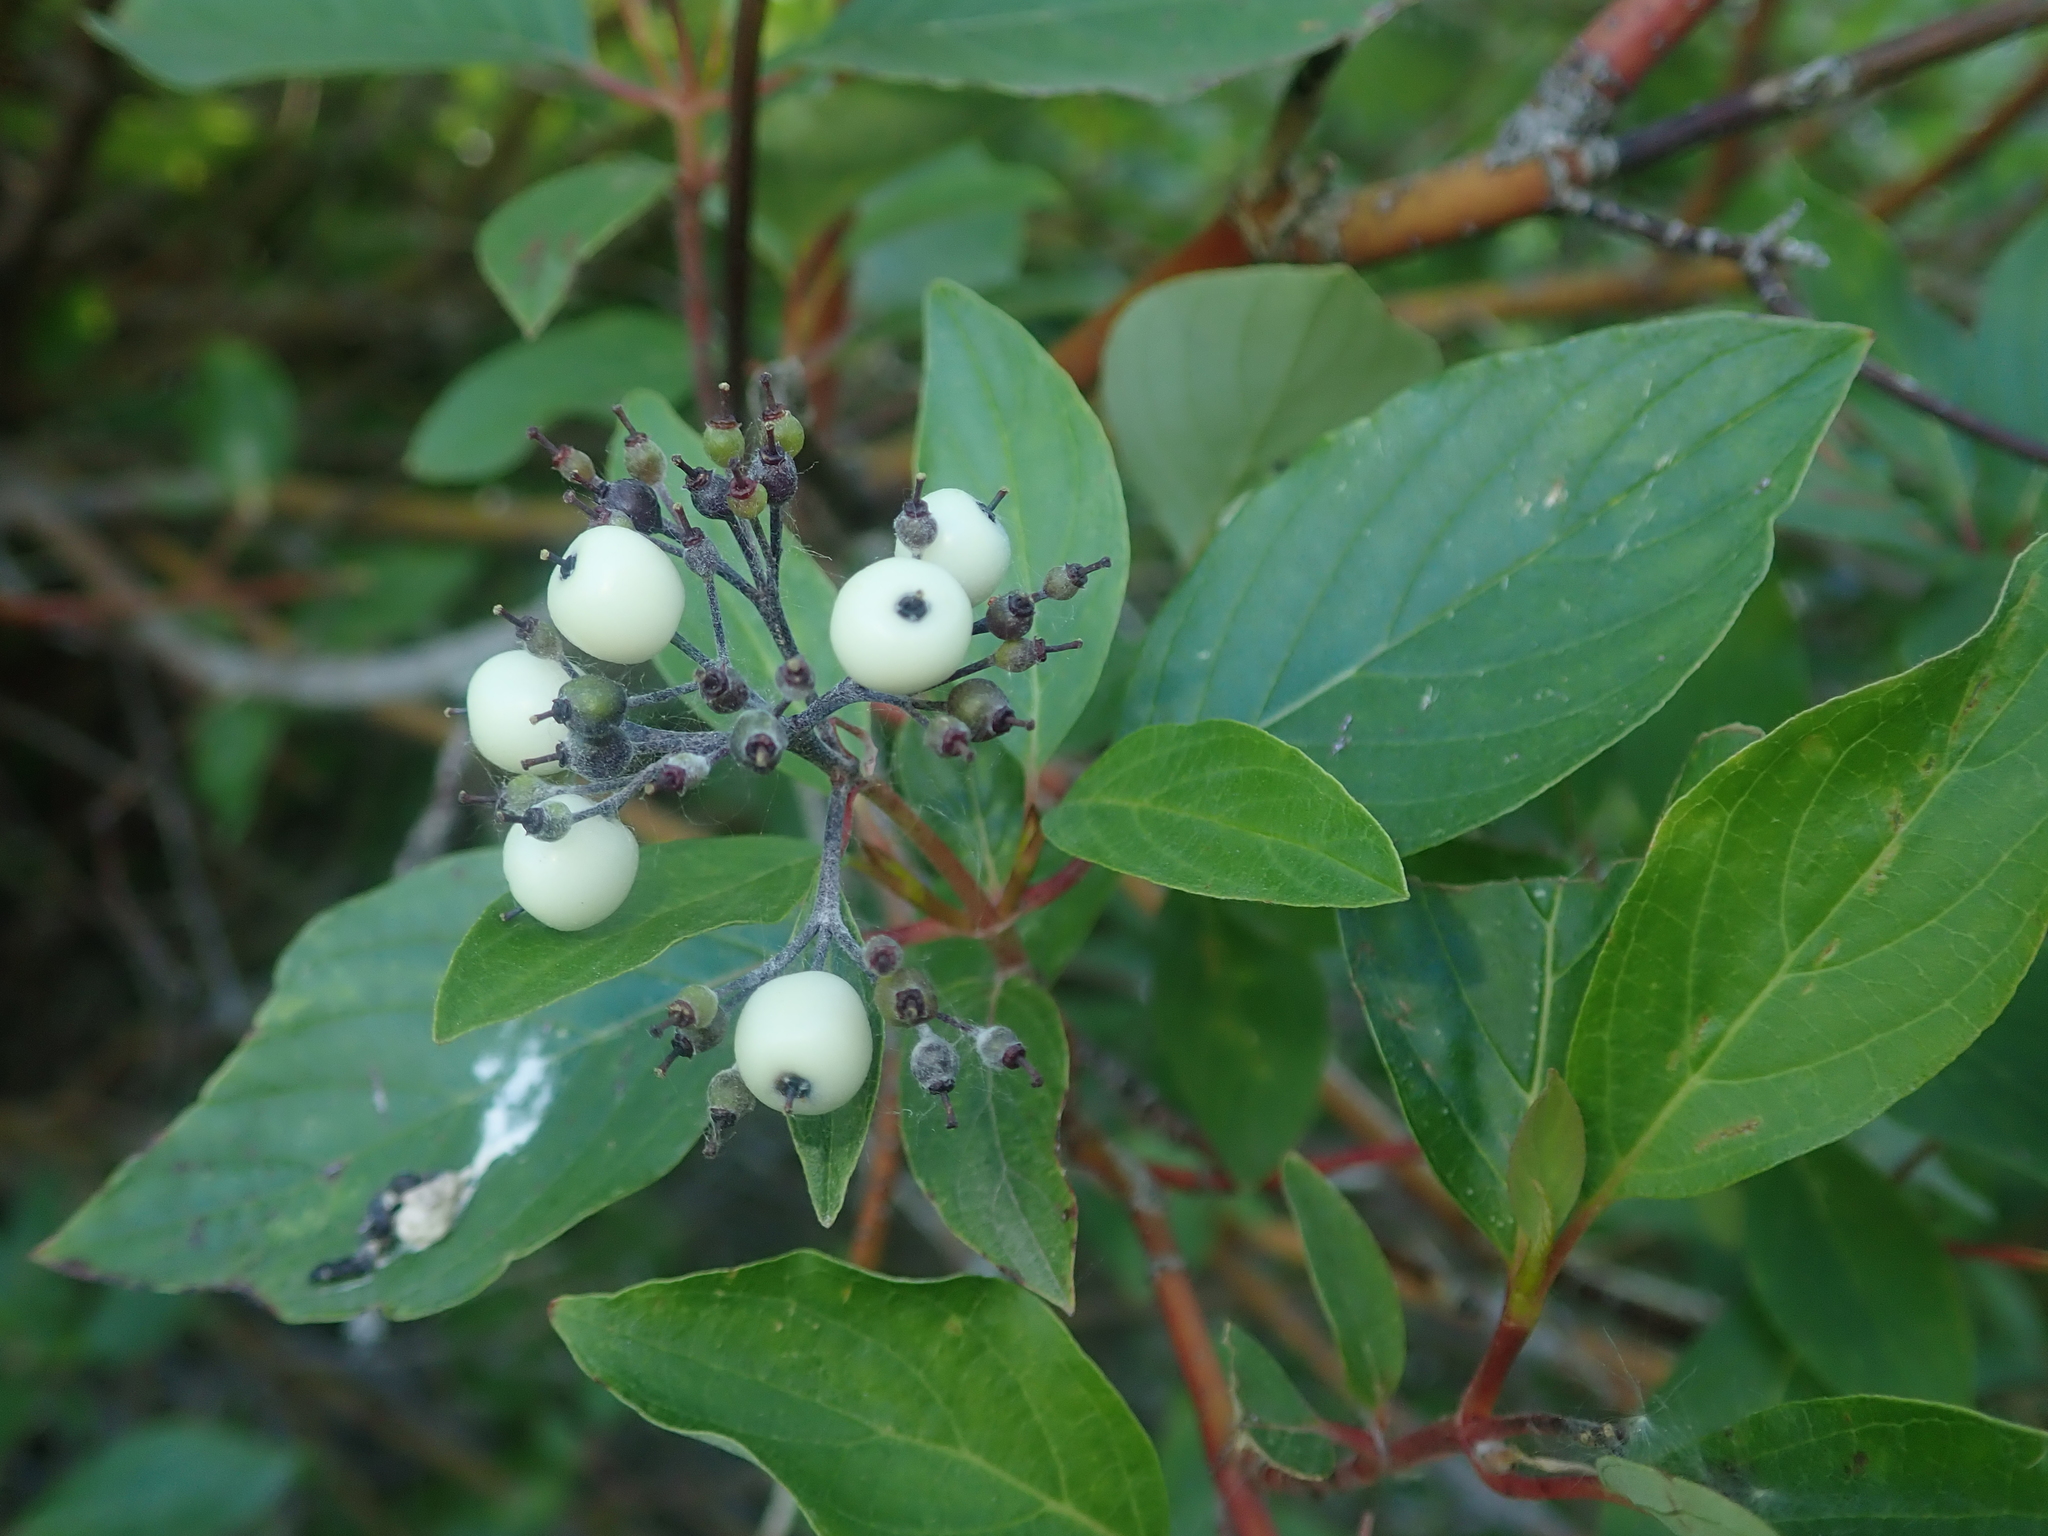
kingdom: Plantae
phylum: Tracheophyta
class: Magnoliopsida
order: Cornales
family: Cornaceae
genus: Cornus
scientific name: Cornus sericea
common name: Red-osier dogwood
